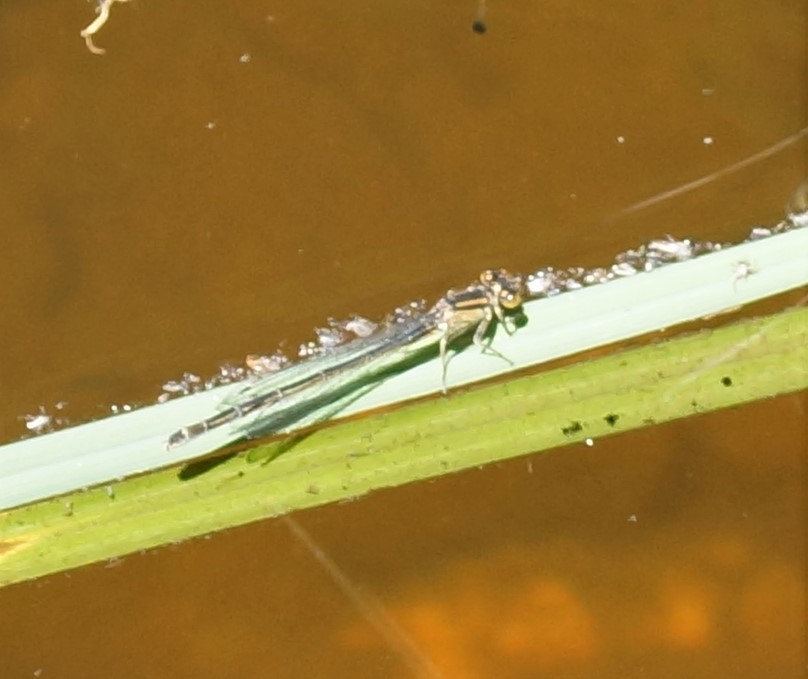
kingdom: Animalia
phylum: Arthropoda
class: Insecta
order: Odonata
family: Coenagrionidae
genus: Ischnura
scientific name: Ischnura heterosticta
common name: Common bluetail
